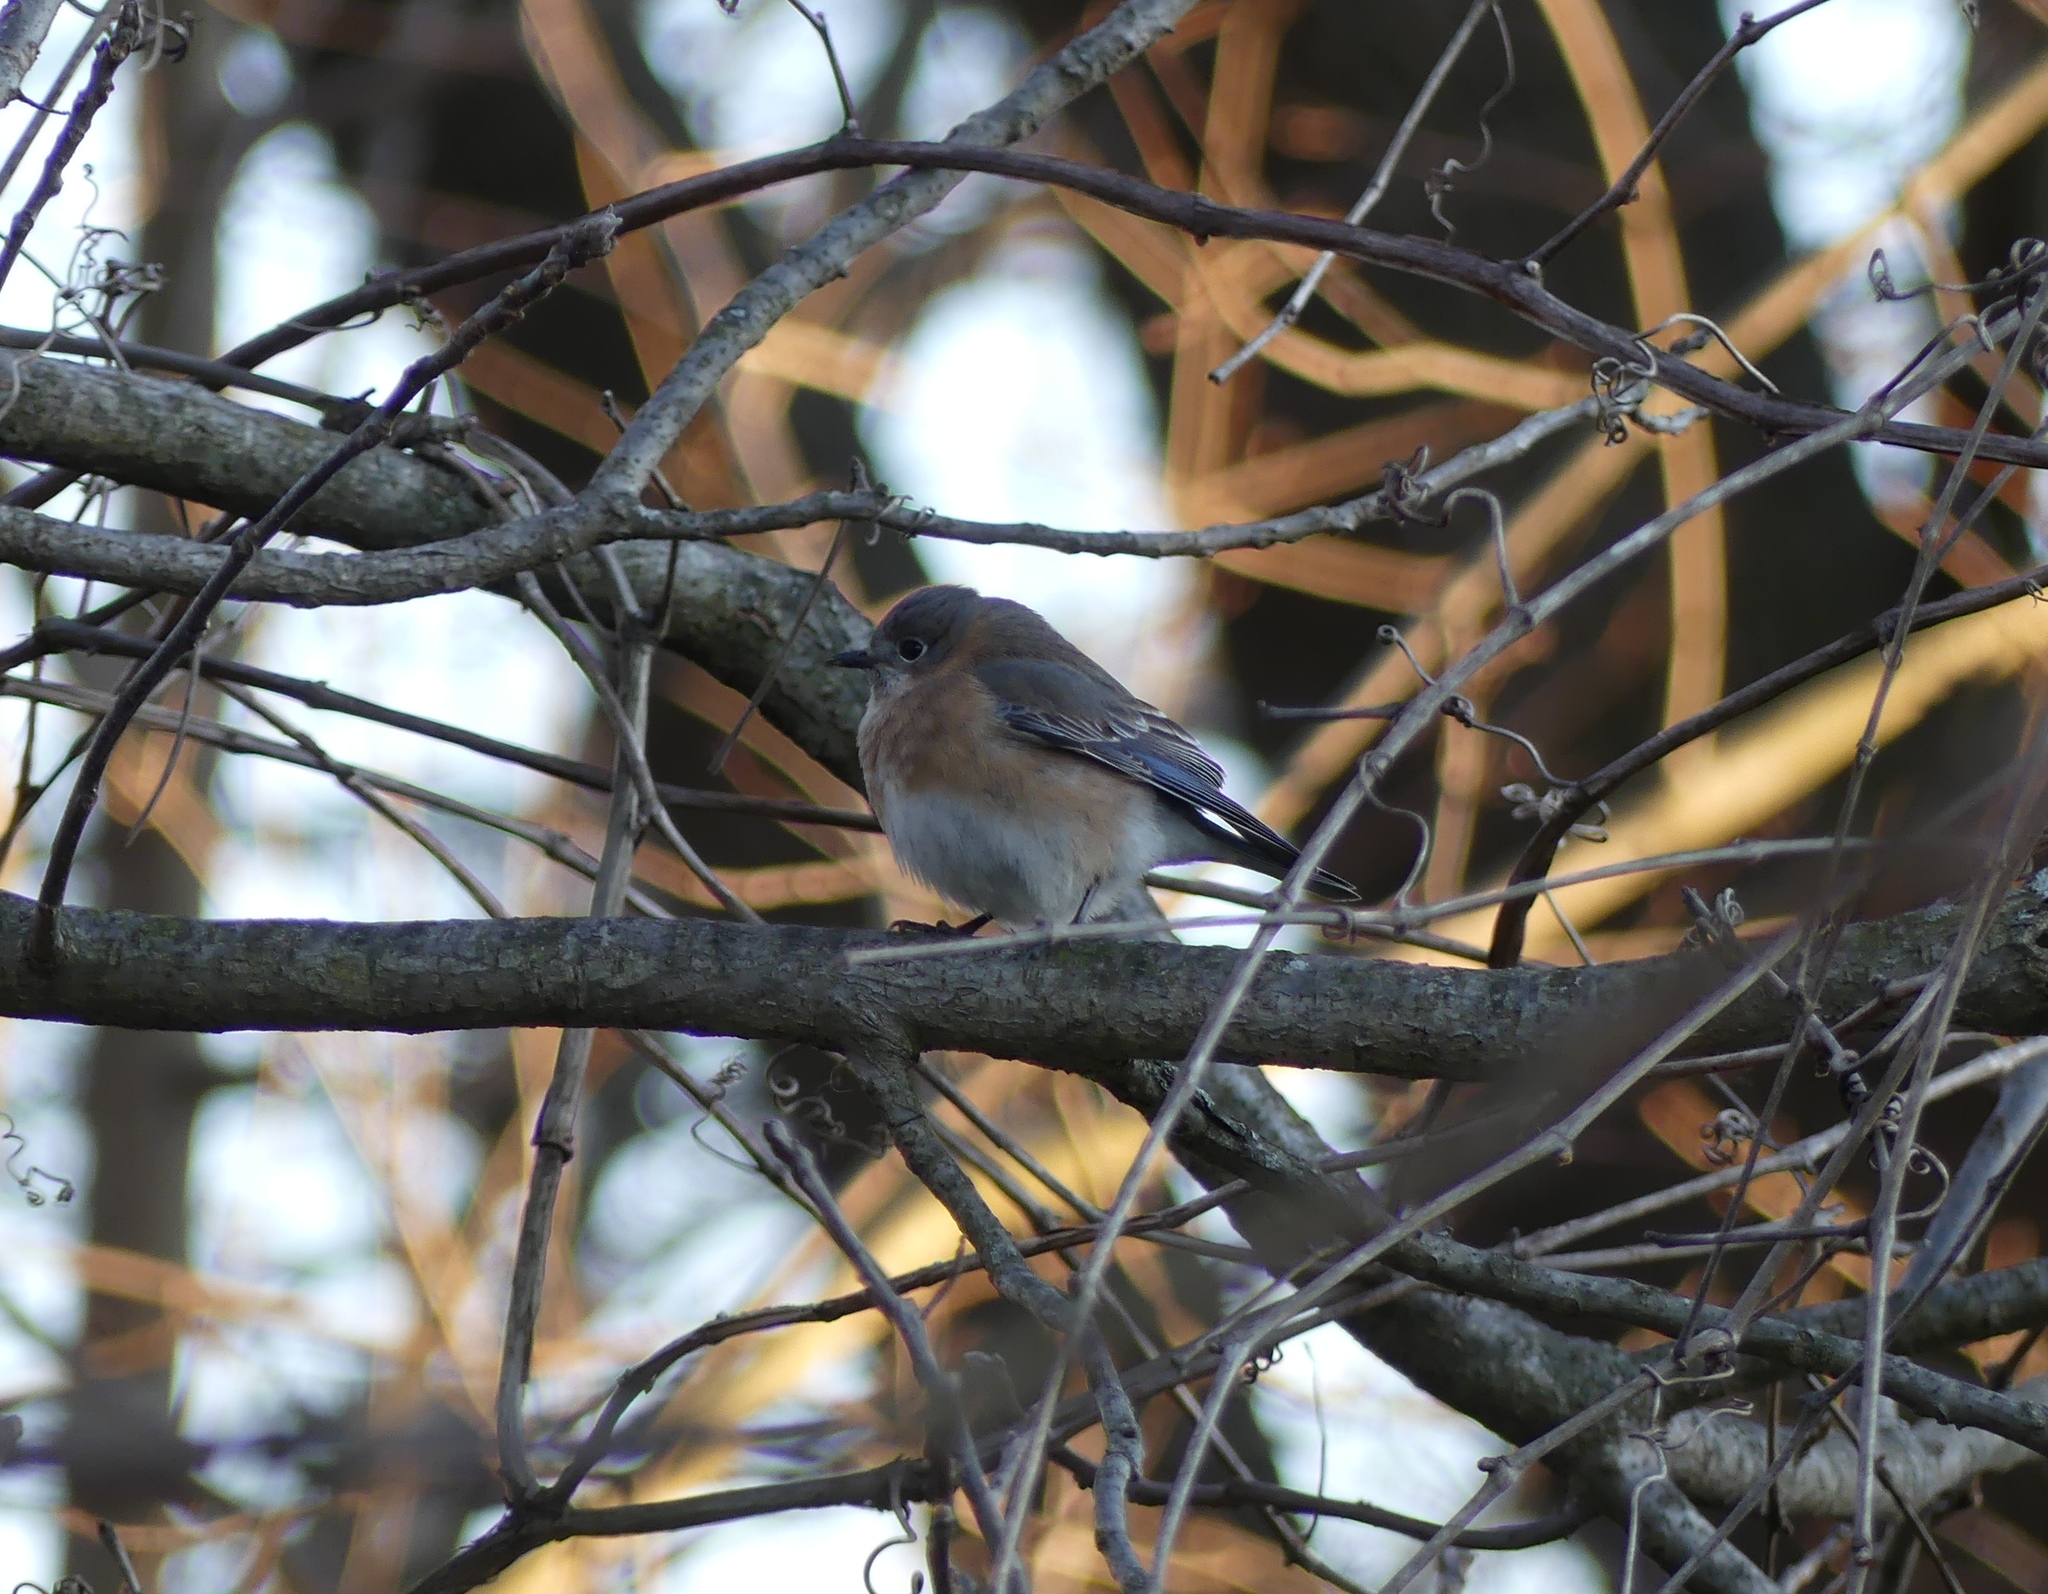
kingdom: Animalia
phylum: Chordata
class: Aves
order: Passeriformes
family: Turdidae
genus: Sialia
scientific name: Sialia sialis
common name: Eastern bluebird
